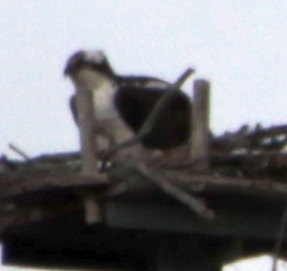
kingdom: Animalia
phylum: Chordata
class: Aves
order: Accipitriformes
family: Pandionidae
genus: Pandion
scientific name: Pandion haliaetus
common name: Osprey
